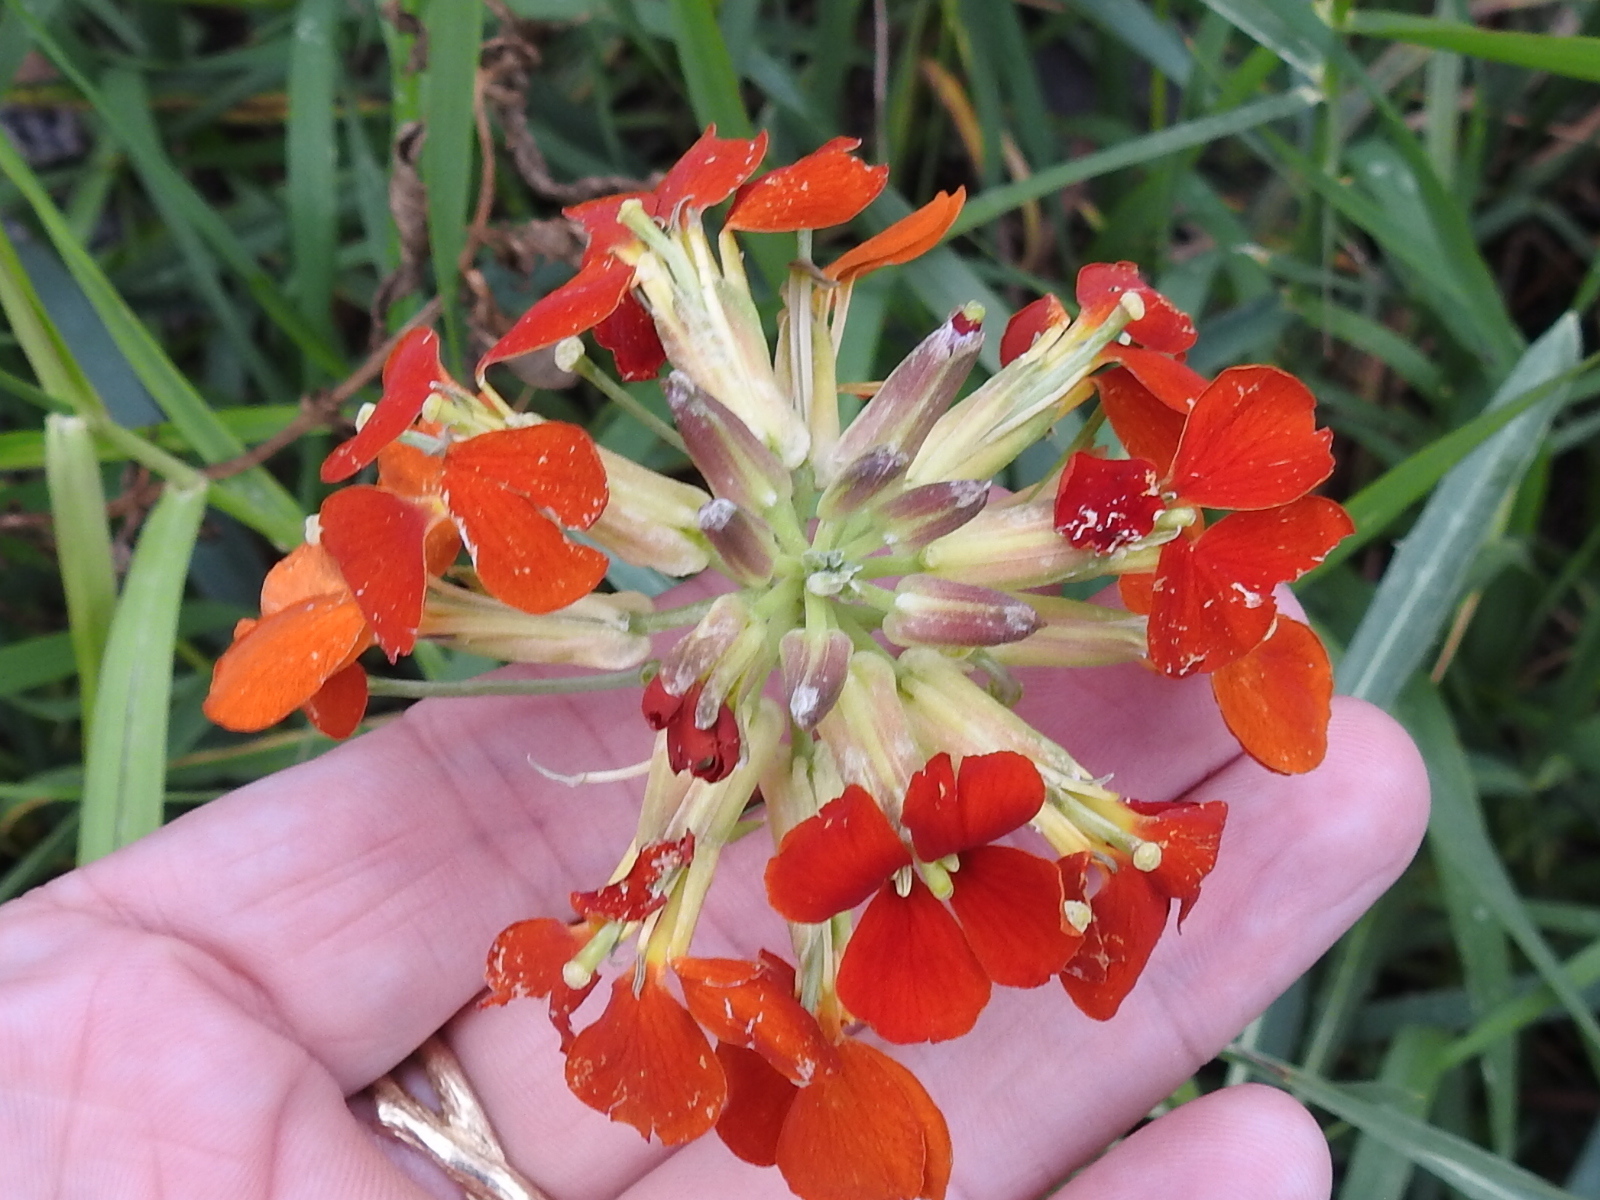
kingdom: Plantae
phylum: Tracheophyta
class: Magnoliopsida
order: Brassicales
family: Brassicaceae
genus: Erysimum
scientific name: Erysimum capitatum
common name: Western wallflower
